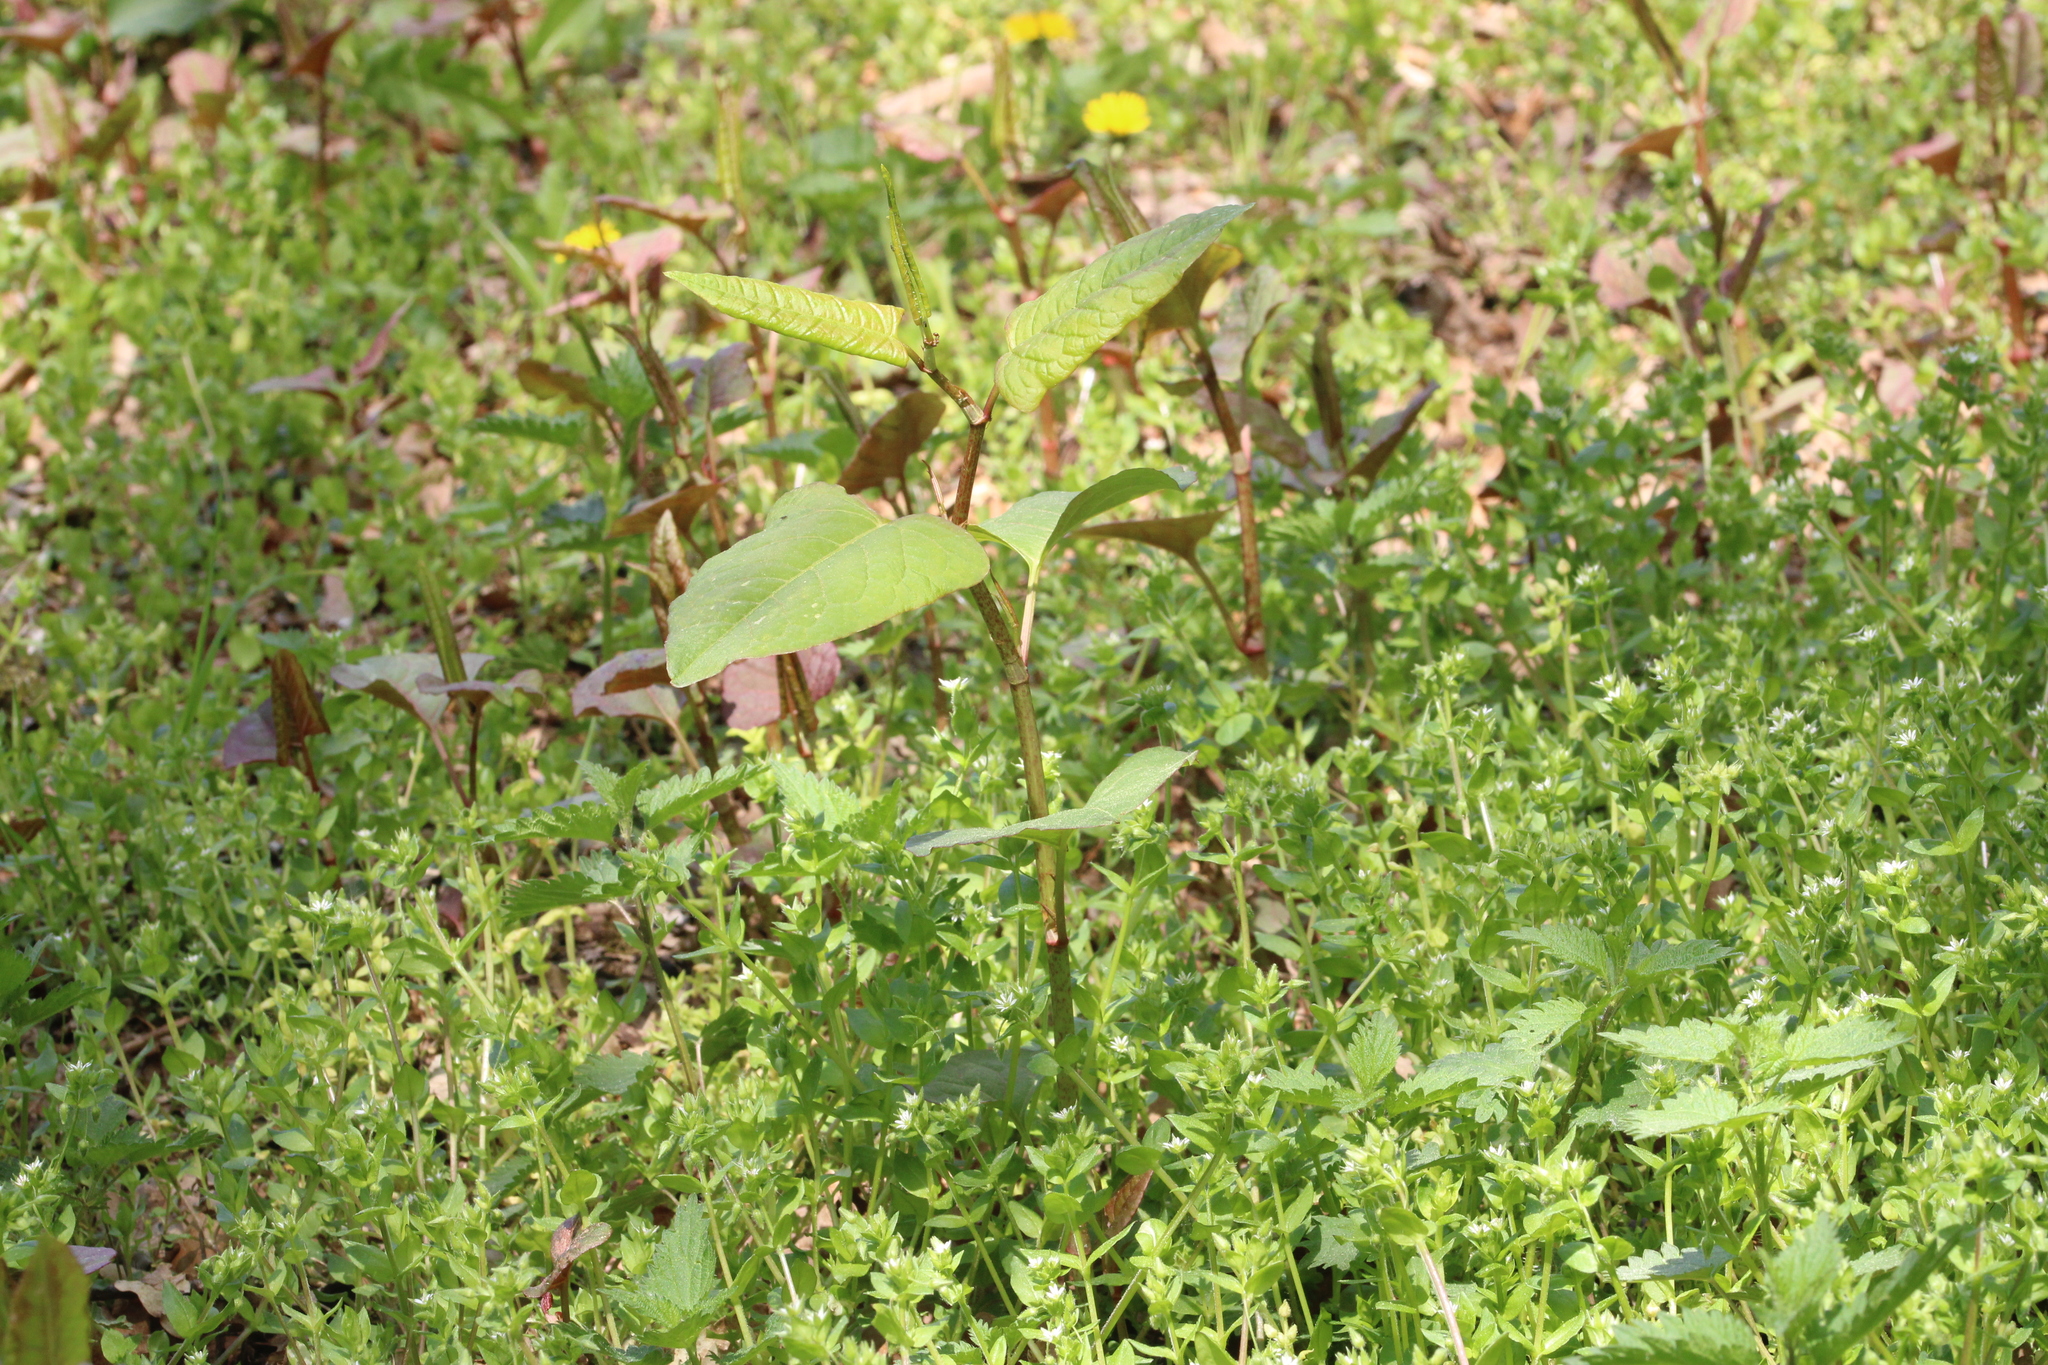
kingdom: Plantae
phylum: Tracheophyta
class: Magnoliopsida
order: Caryophyllales
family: Polygonaceae
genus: Reynoutria
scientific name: Reynoutria japonica
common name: Japanese knotweed
